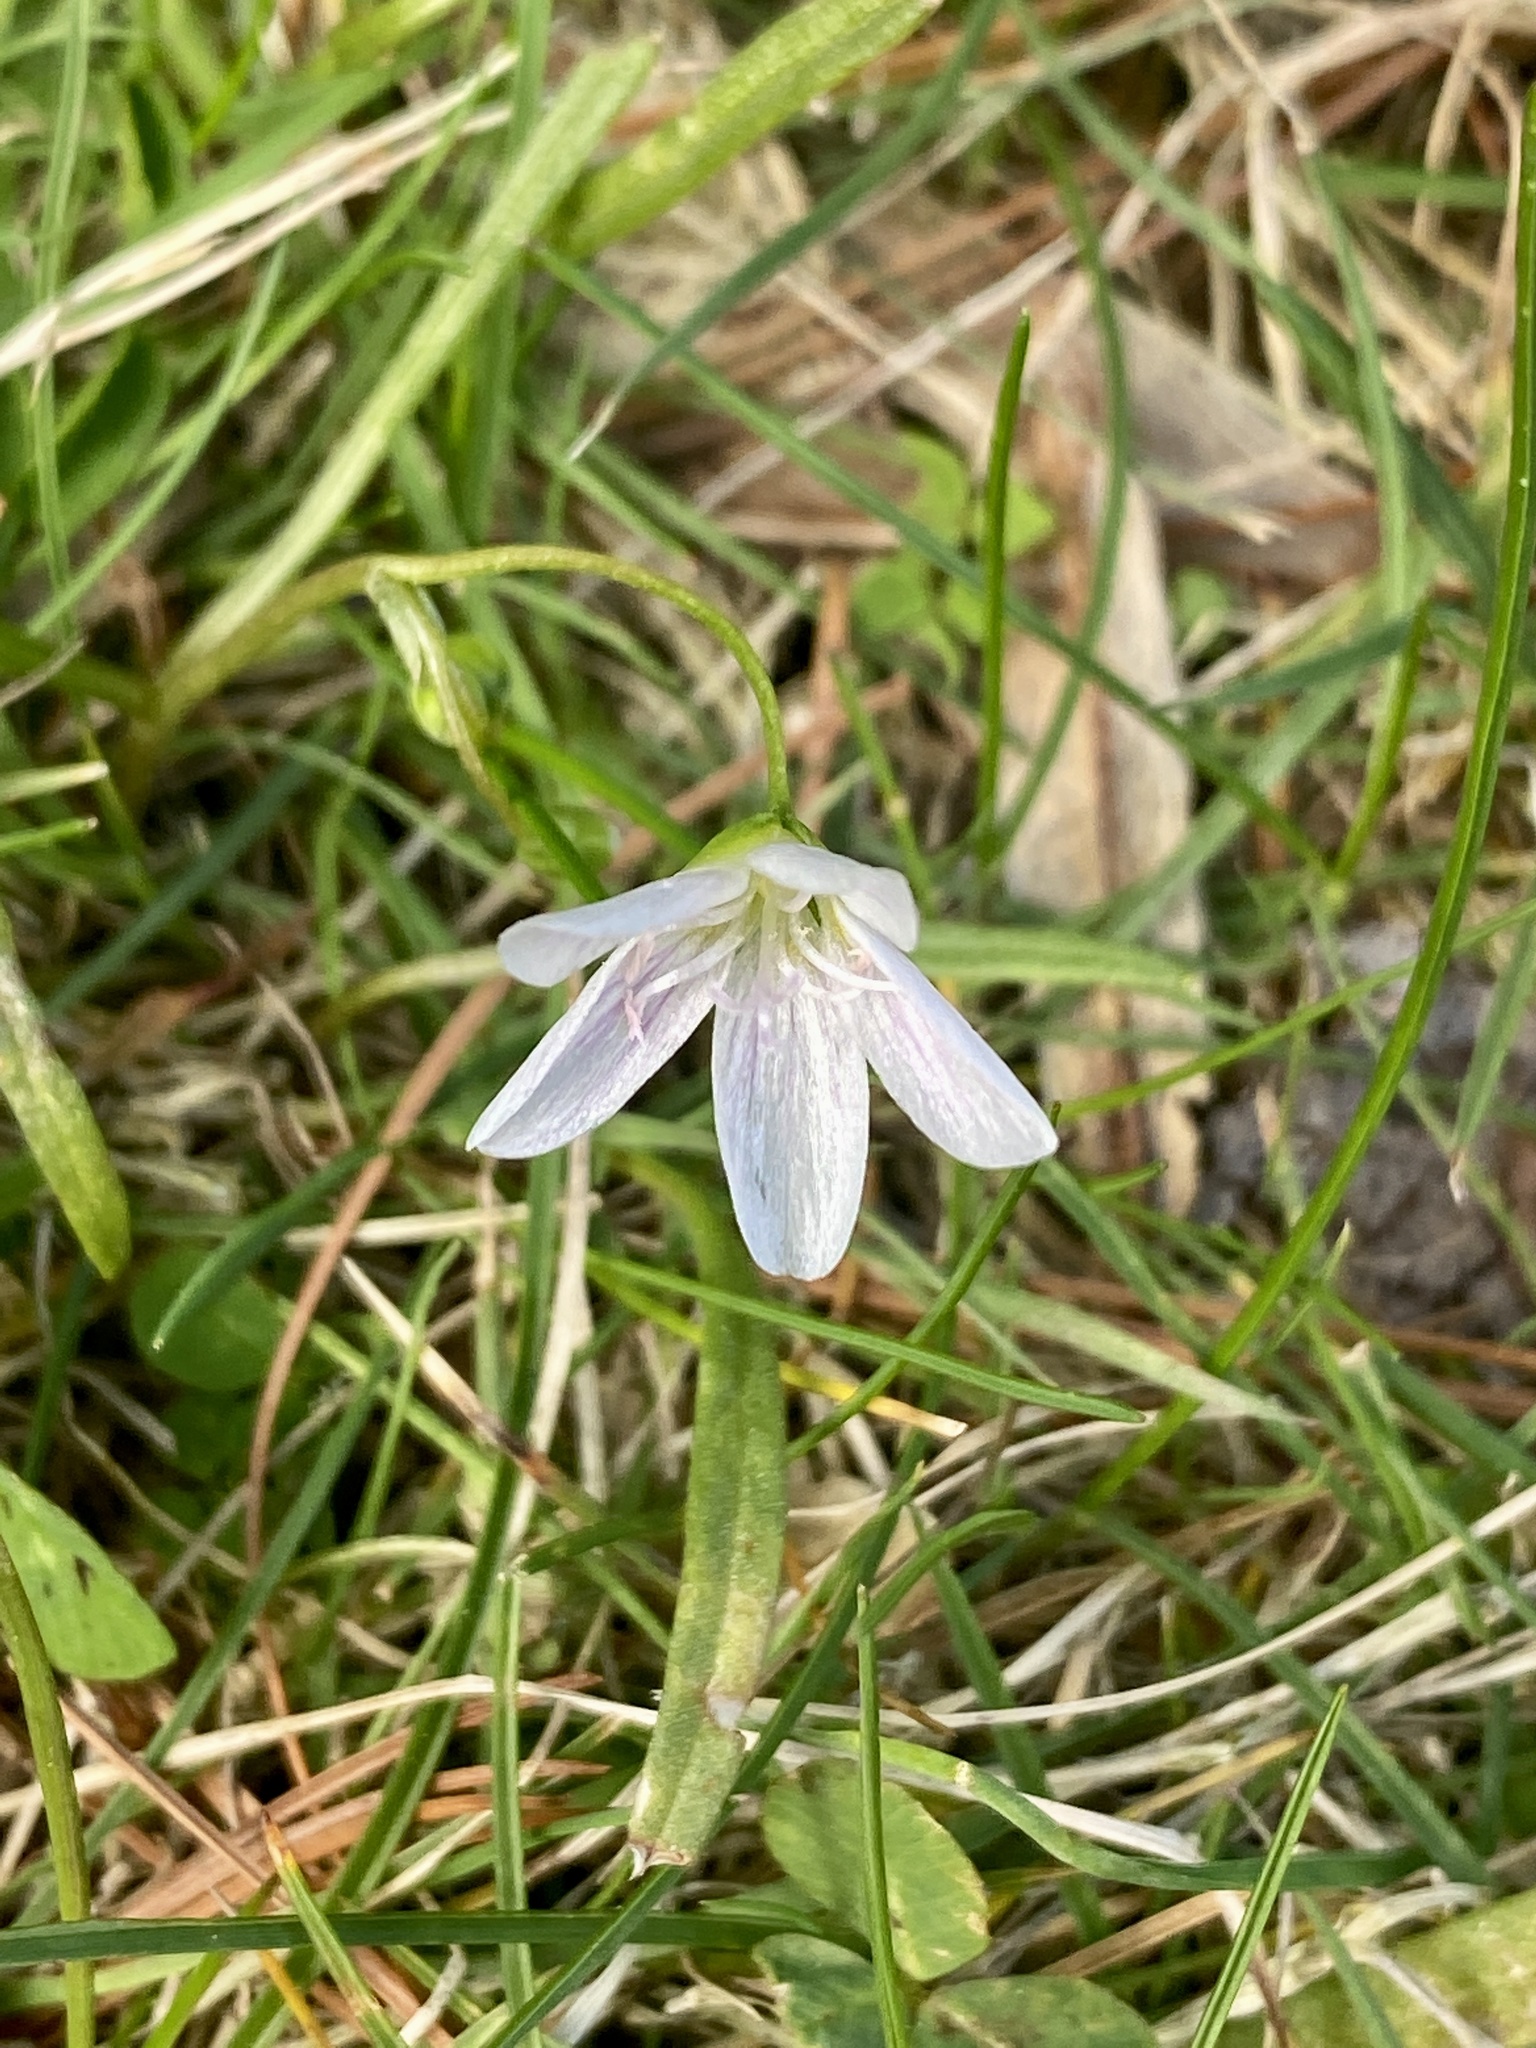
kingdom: Plantae
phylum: Tracheophyta
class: Magnoliopsida
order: Caryophyllales
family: Montiaceae
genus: Claytonia
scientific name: Claytonia virginica
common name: Virginia springbeauty
